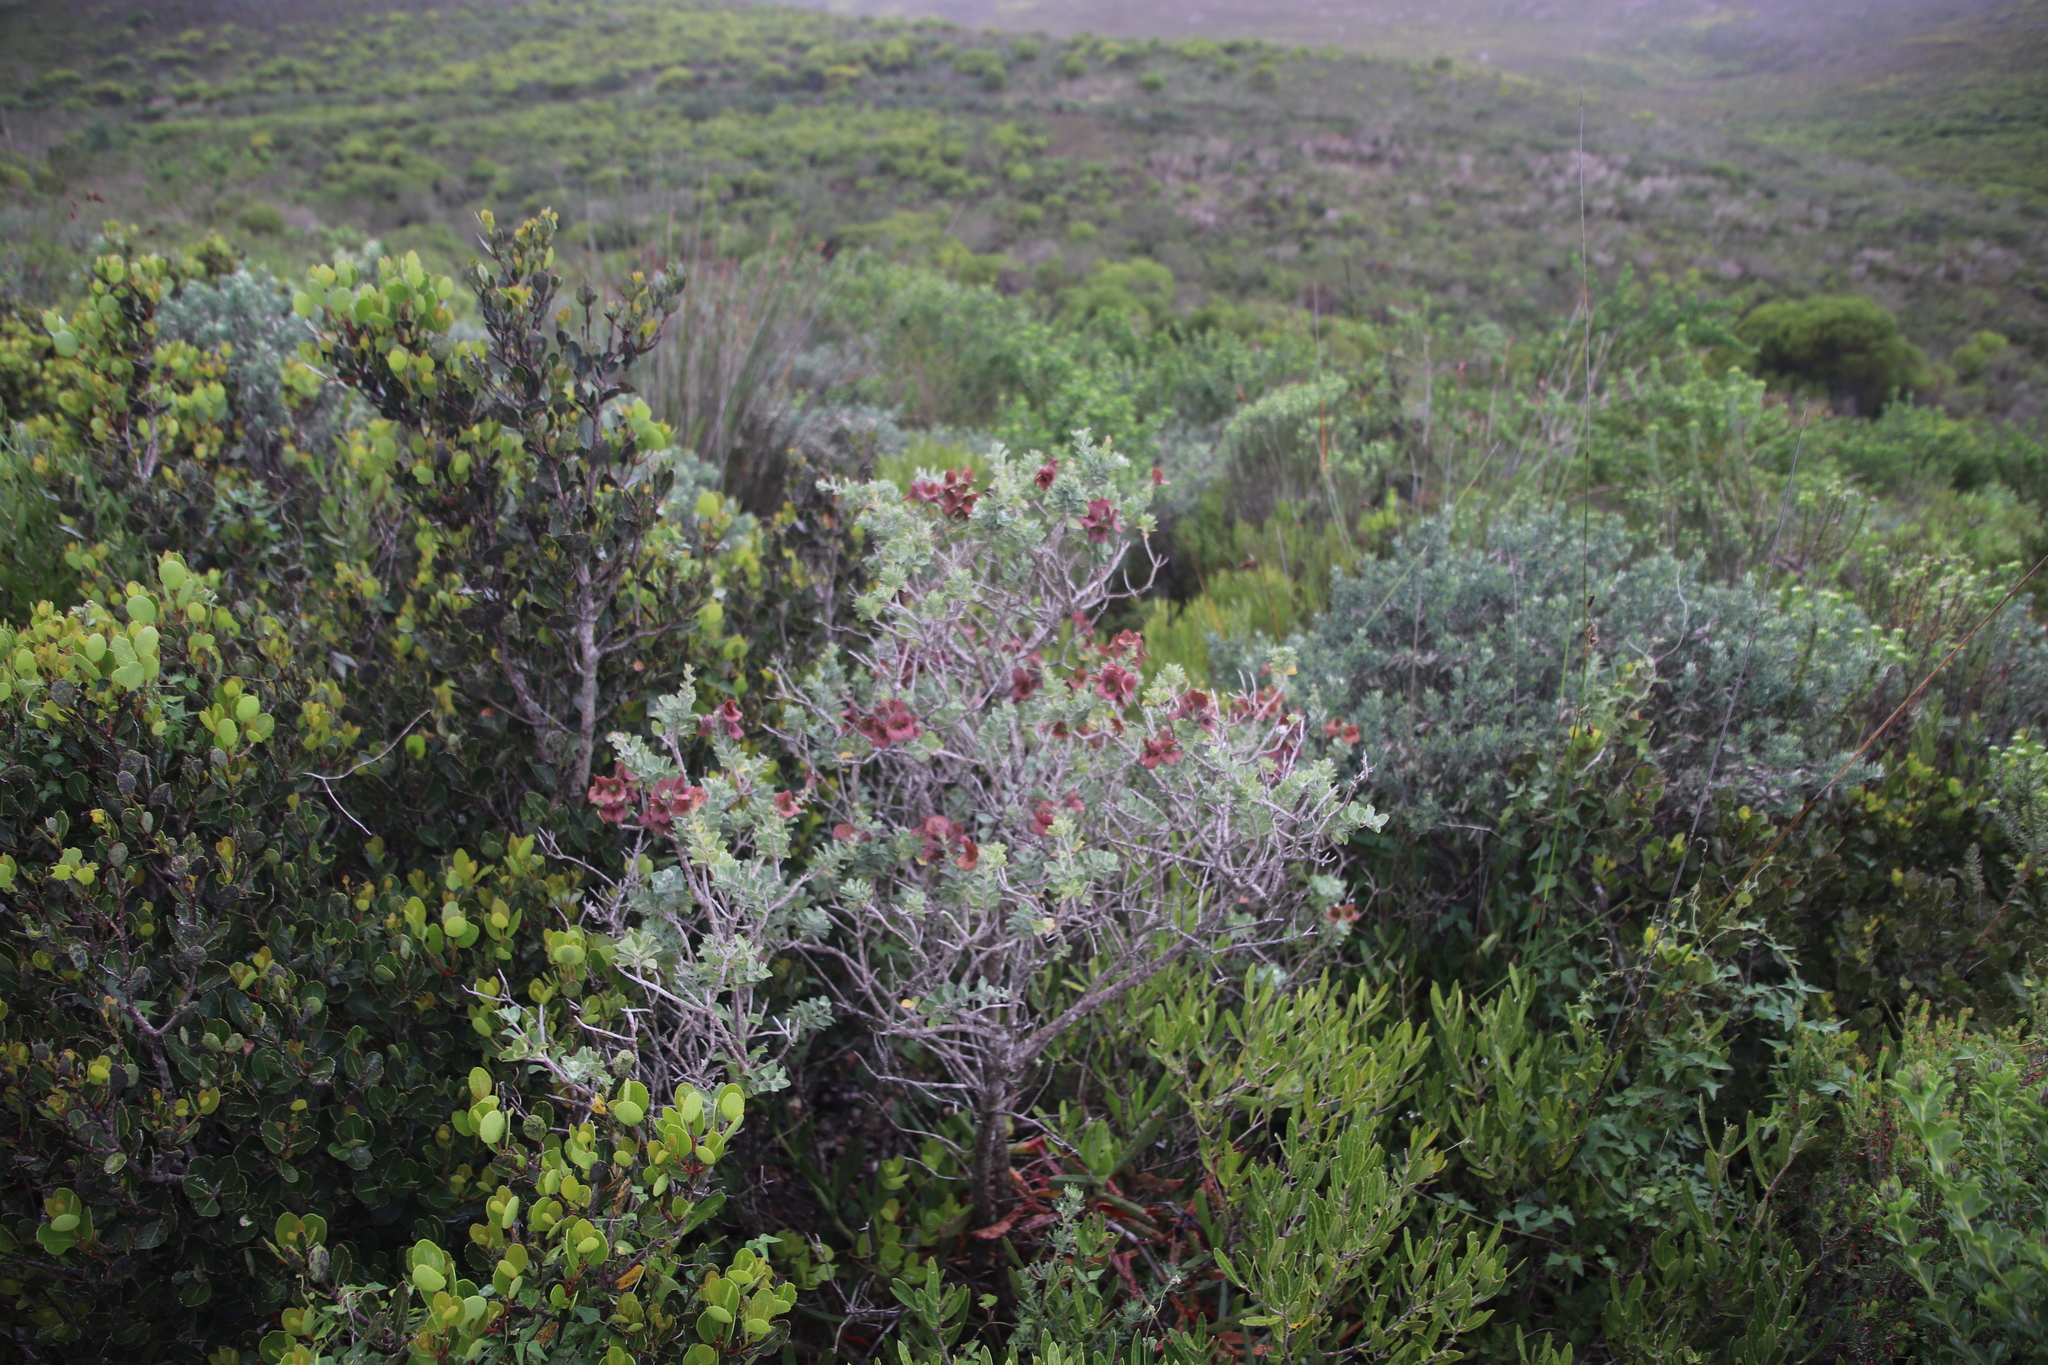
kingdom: Plantae
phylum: Tracheophyta
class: Magnoliopsida
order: Lamiales
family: Lamiaceae
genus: Salvia
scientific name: Salvia aurea
